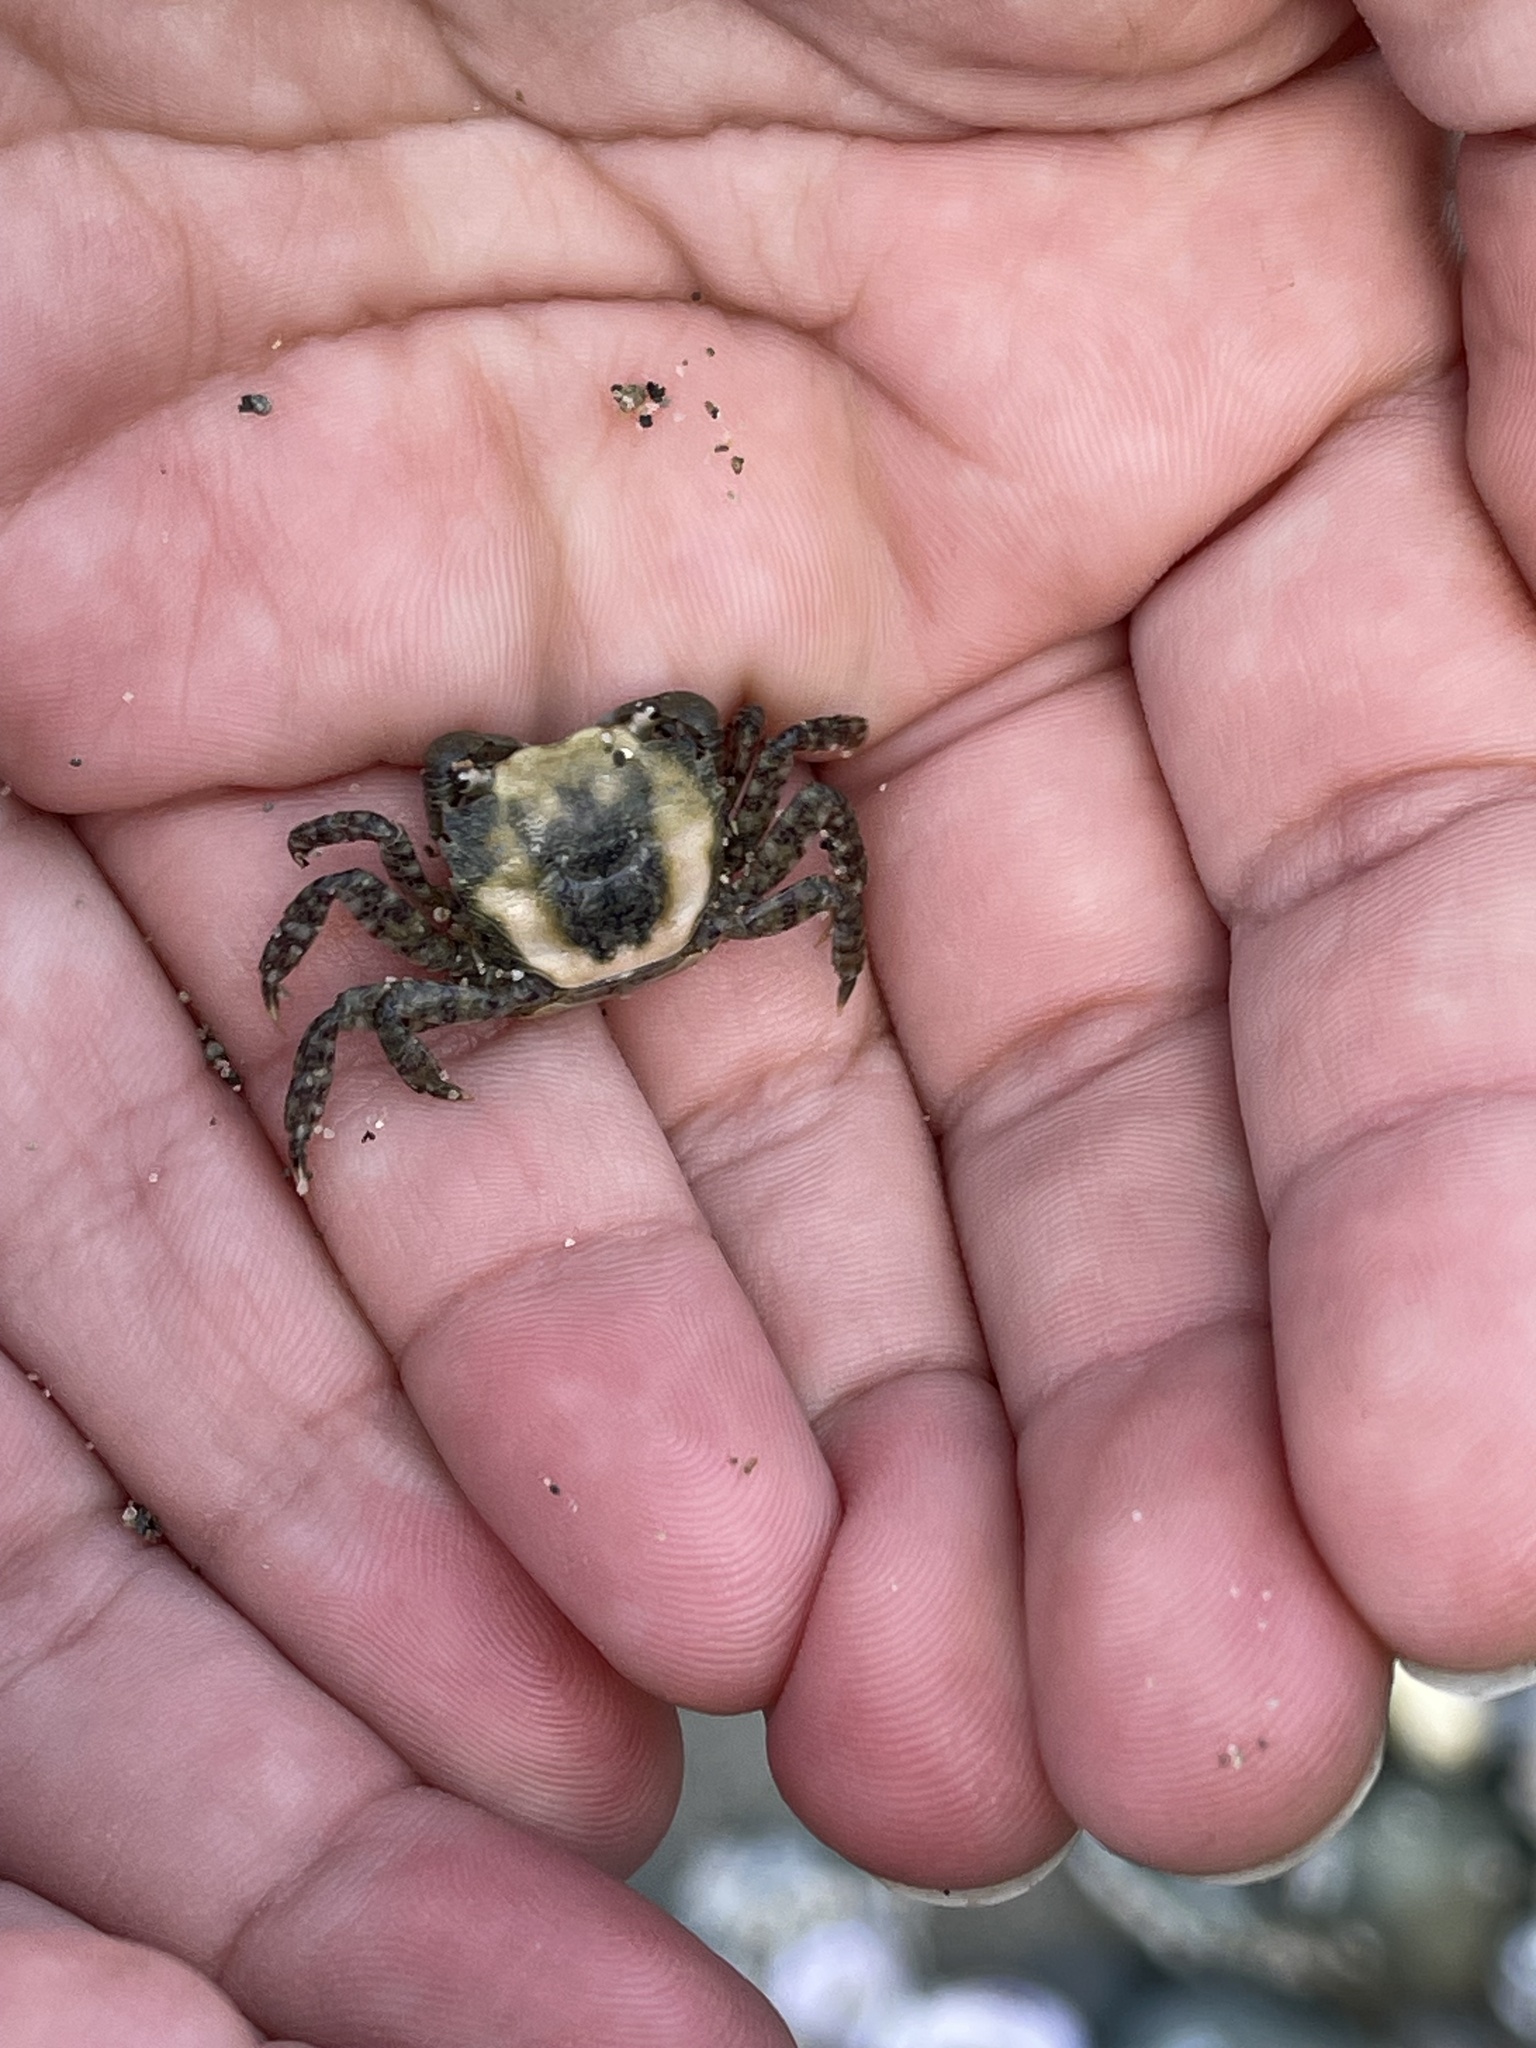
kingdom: Animalia
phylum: Arthropoda
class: Malacostraca
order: Decapoda
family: Varunidae
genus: Hemigrapsus
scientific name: Hemigrapsus oregonensis
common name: Yellow shore crab
